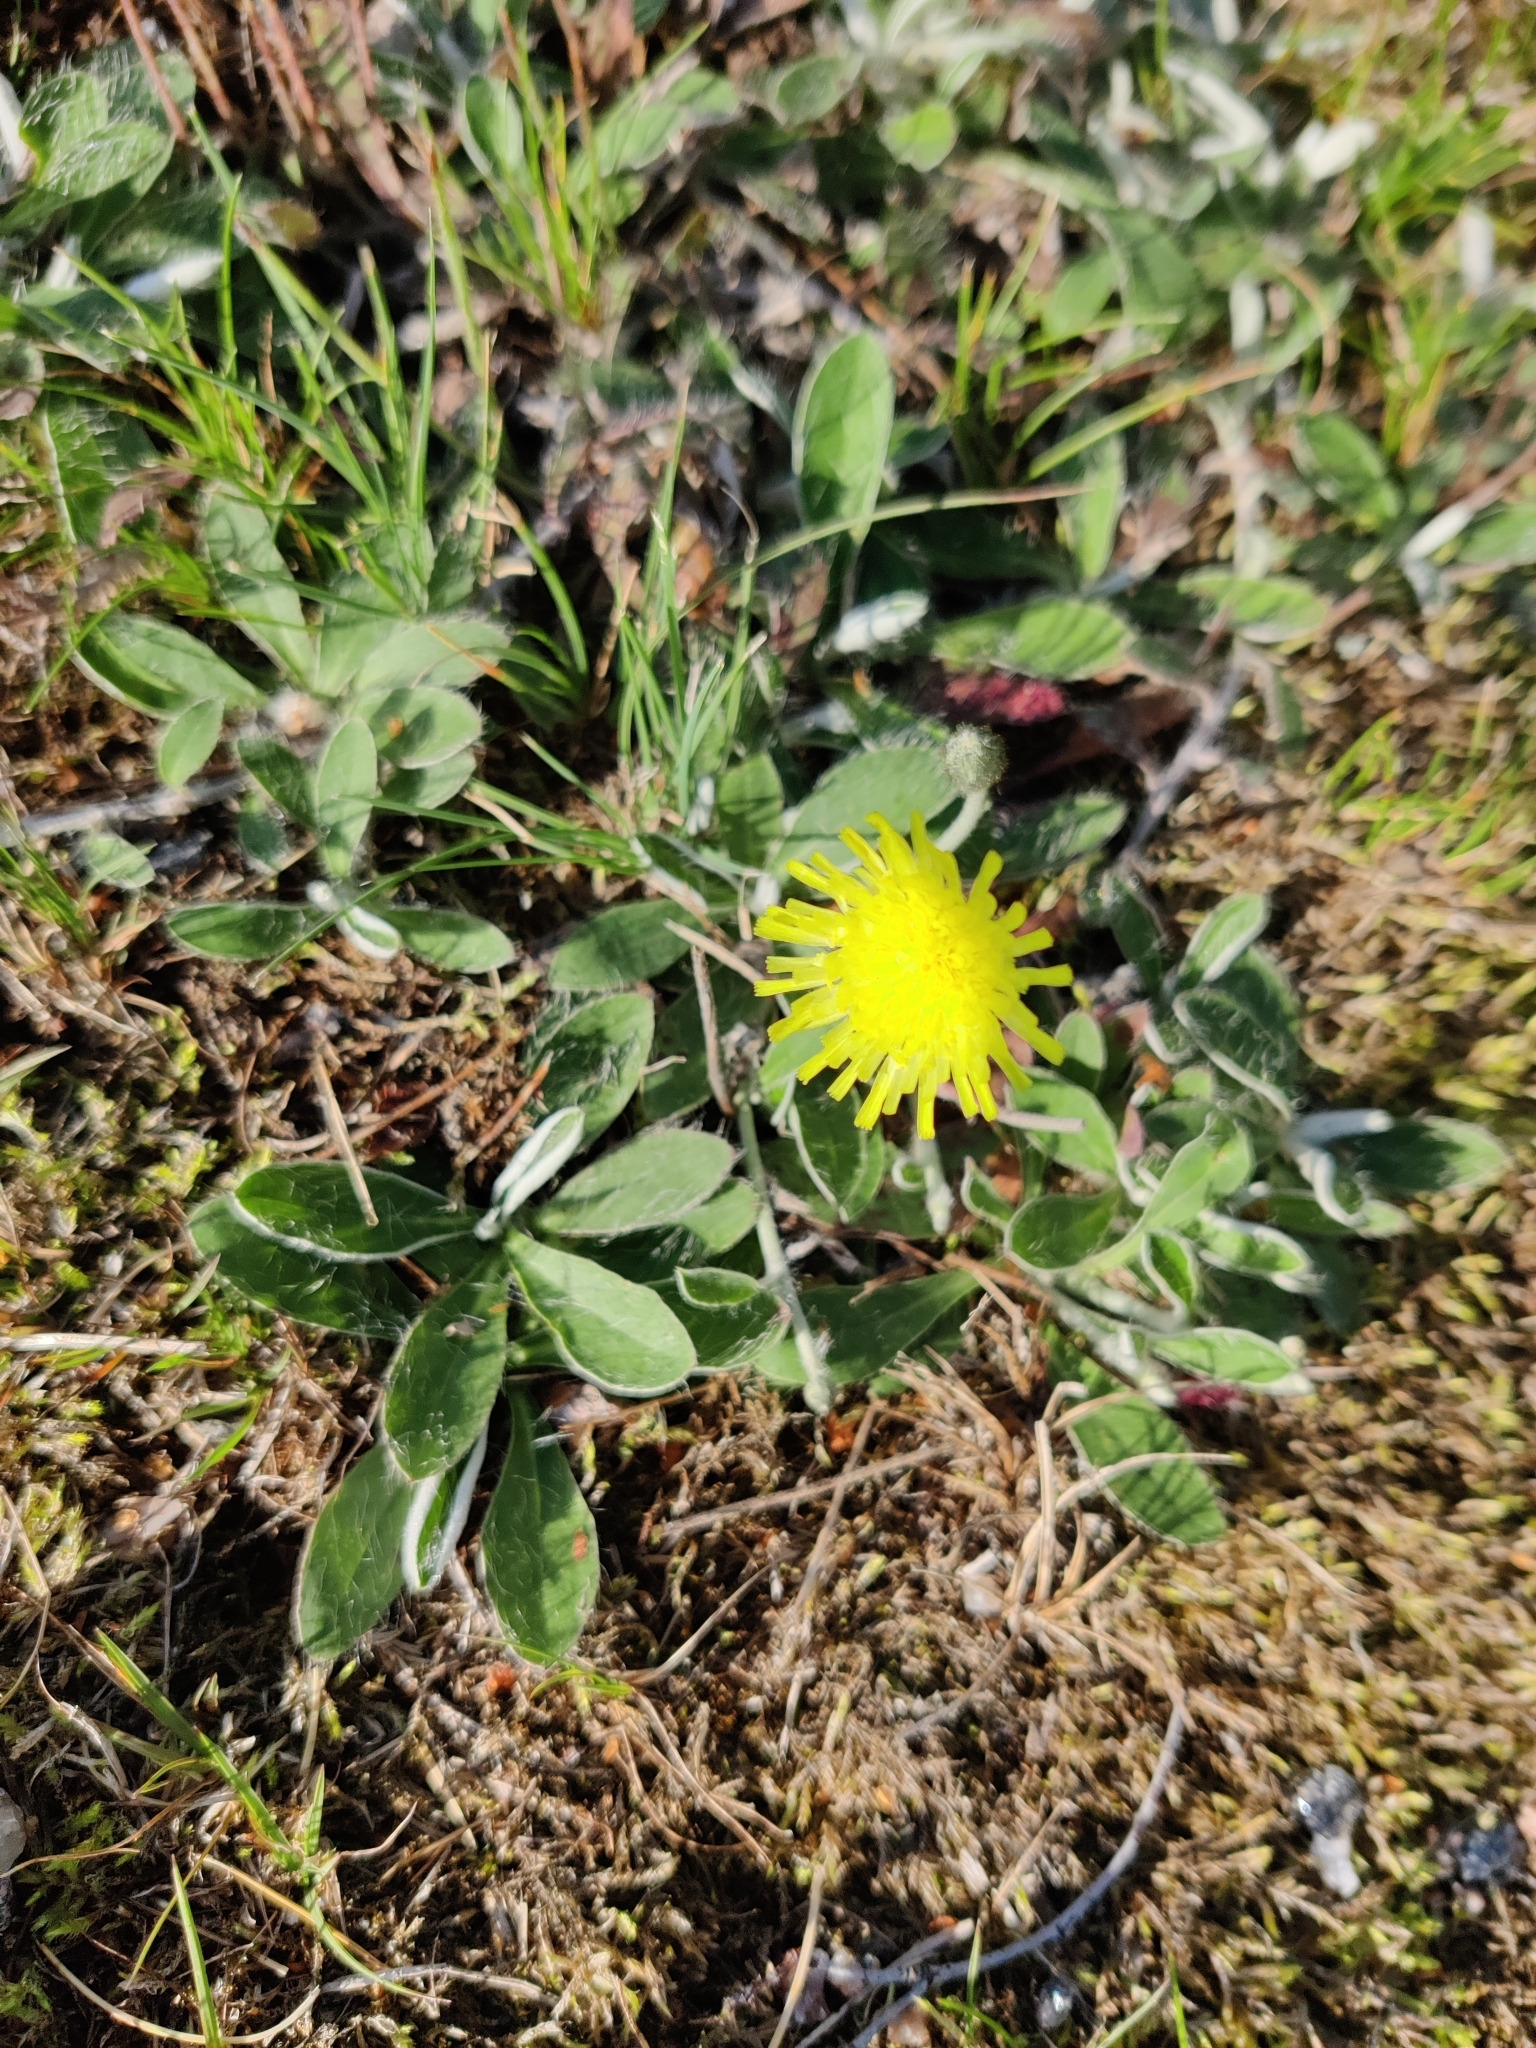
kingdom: Plantae
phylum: Tracheophyta
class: Magnoliopsida
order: Asterales
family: Asteraceae
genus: Pilosella
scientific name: Pilosella officinarum
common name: Mouse-ear hawkweed
